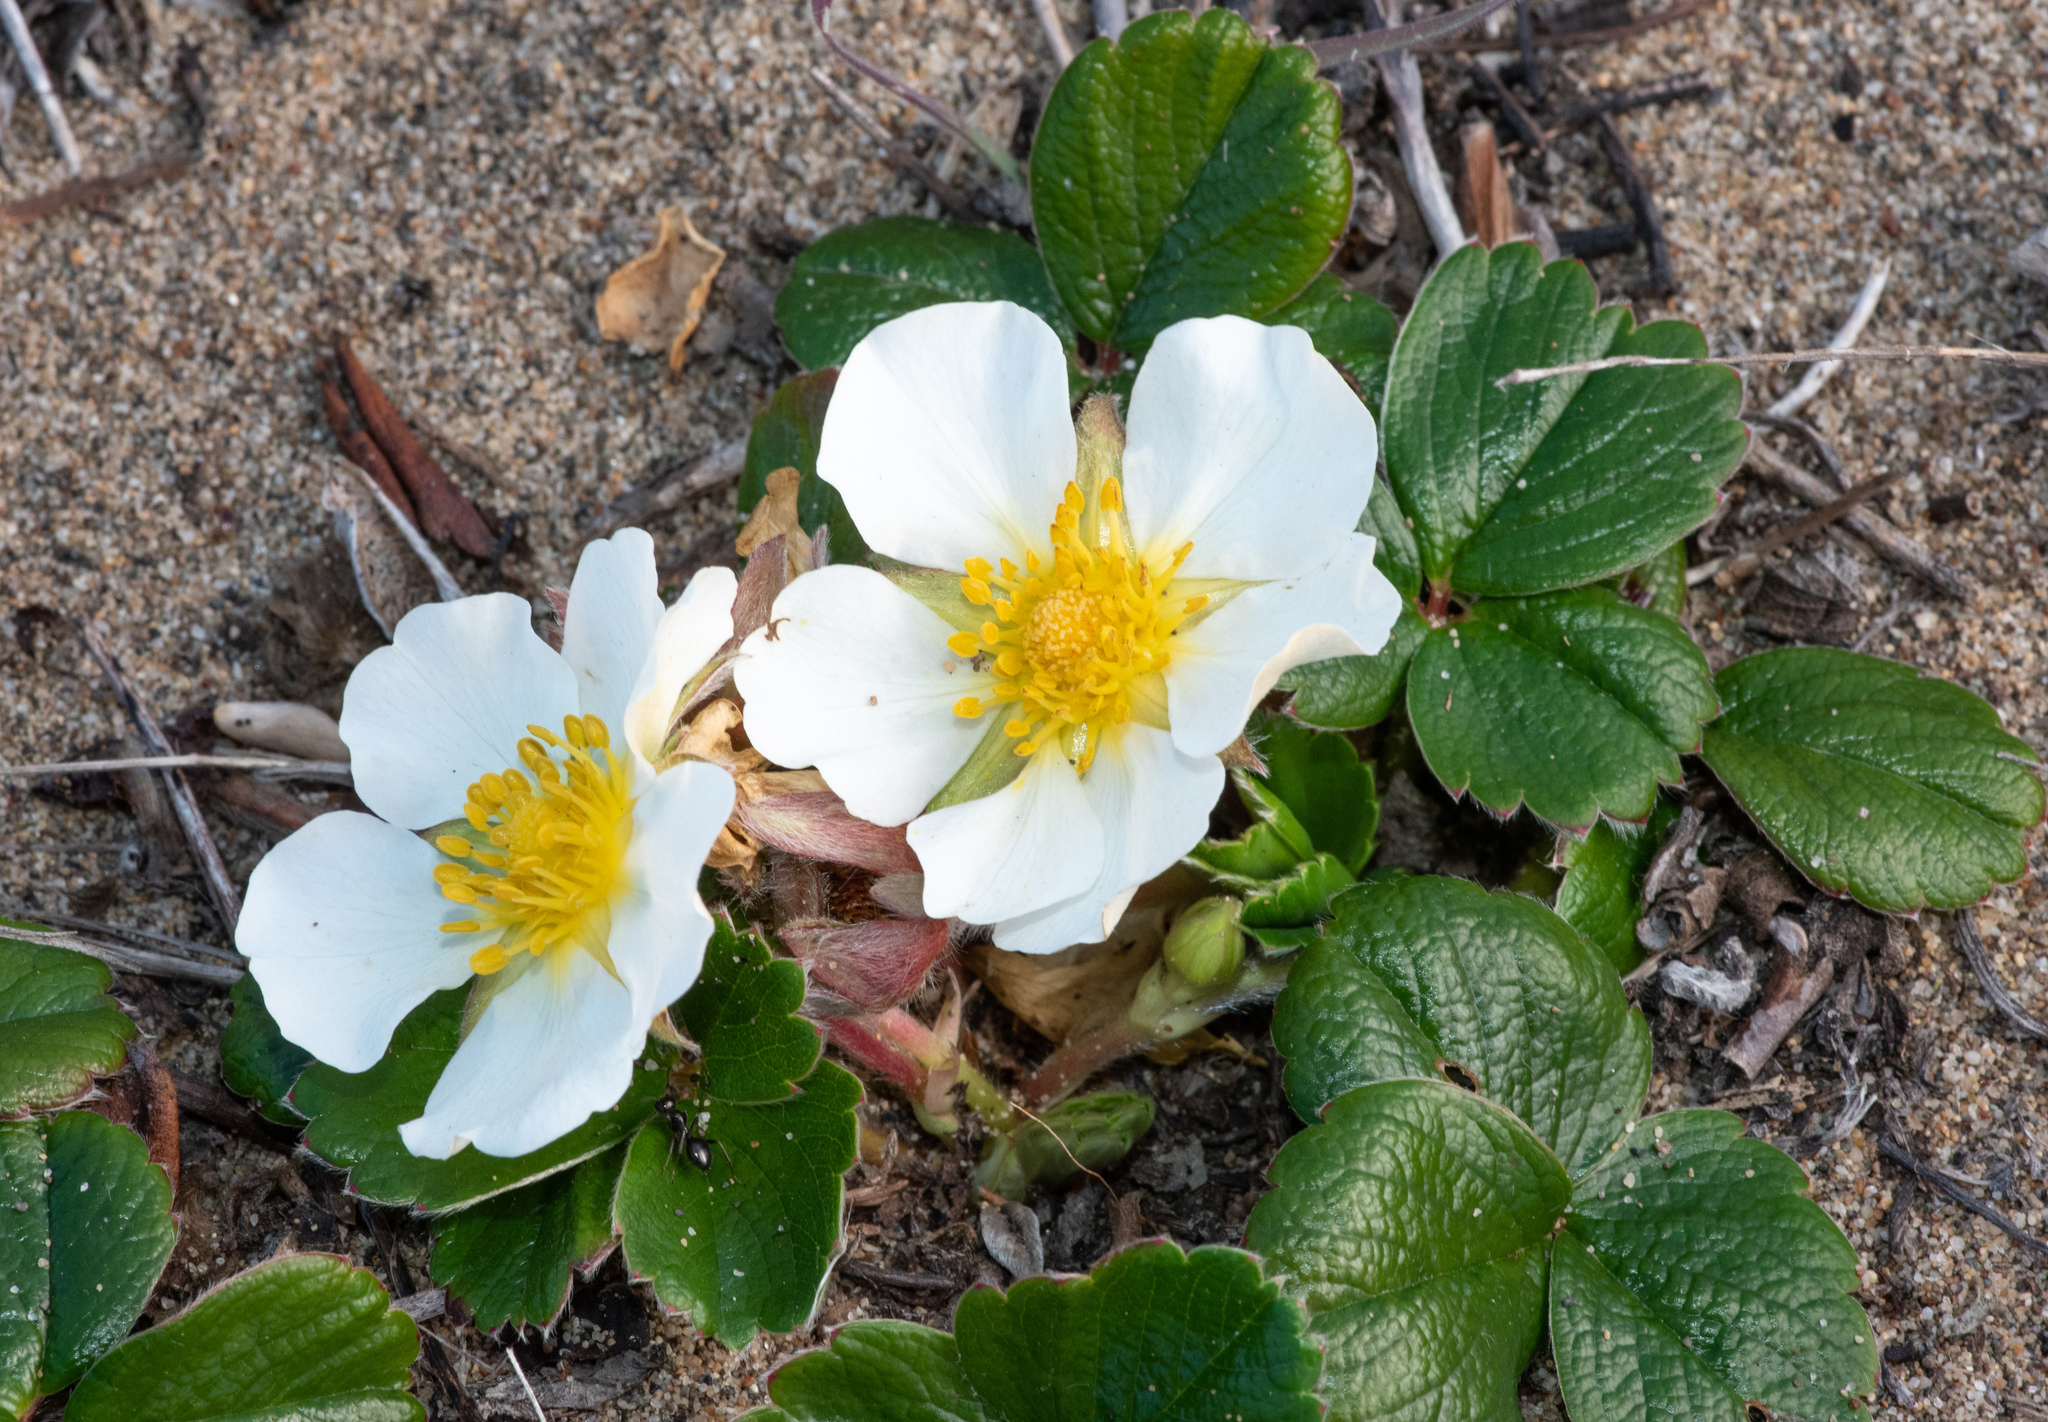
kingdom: Plantae
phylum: Tracheophyta
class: Magnoliopsida
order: Rosales
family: Rosaceae
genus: Fragaria
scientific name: Fragaria chiloensis
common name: Beach strawberry
